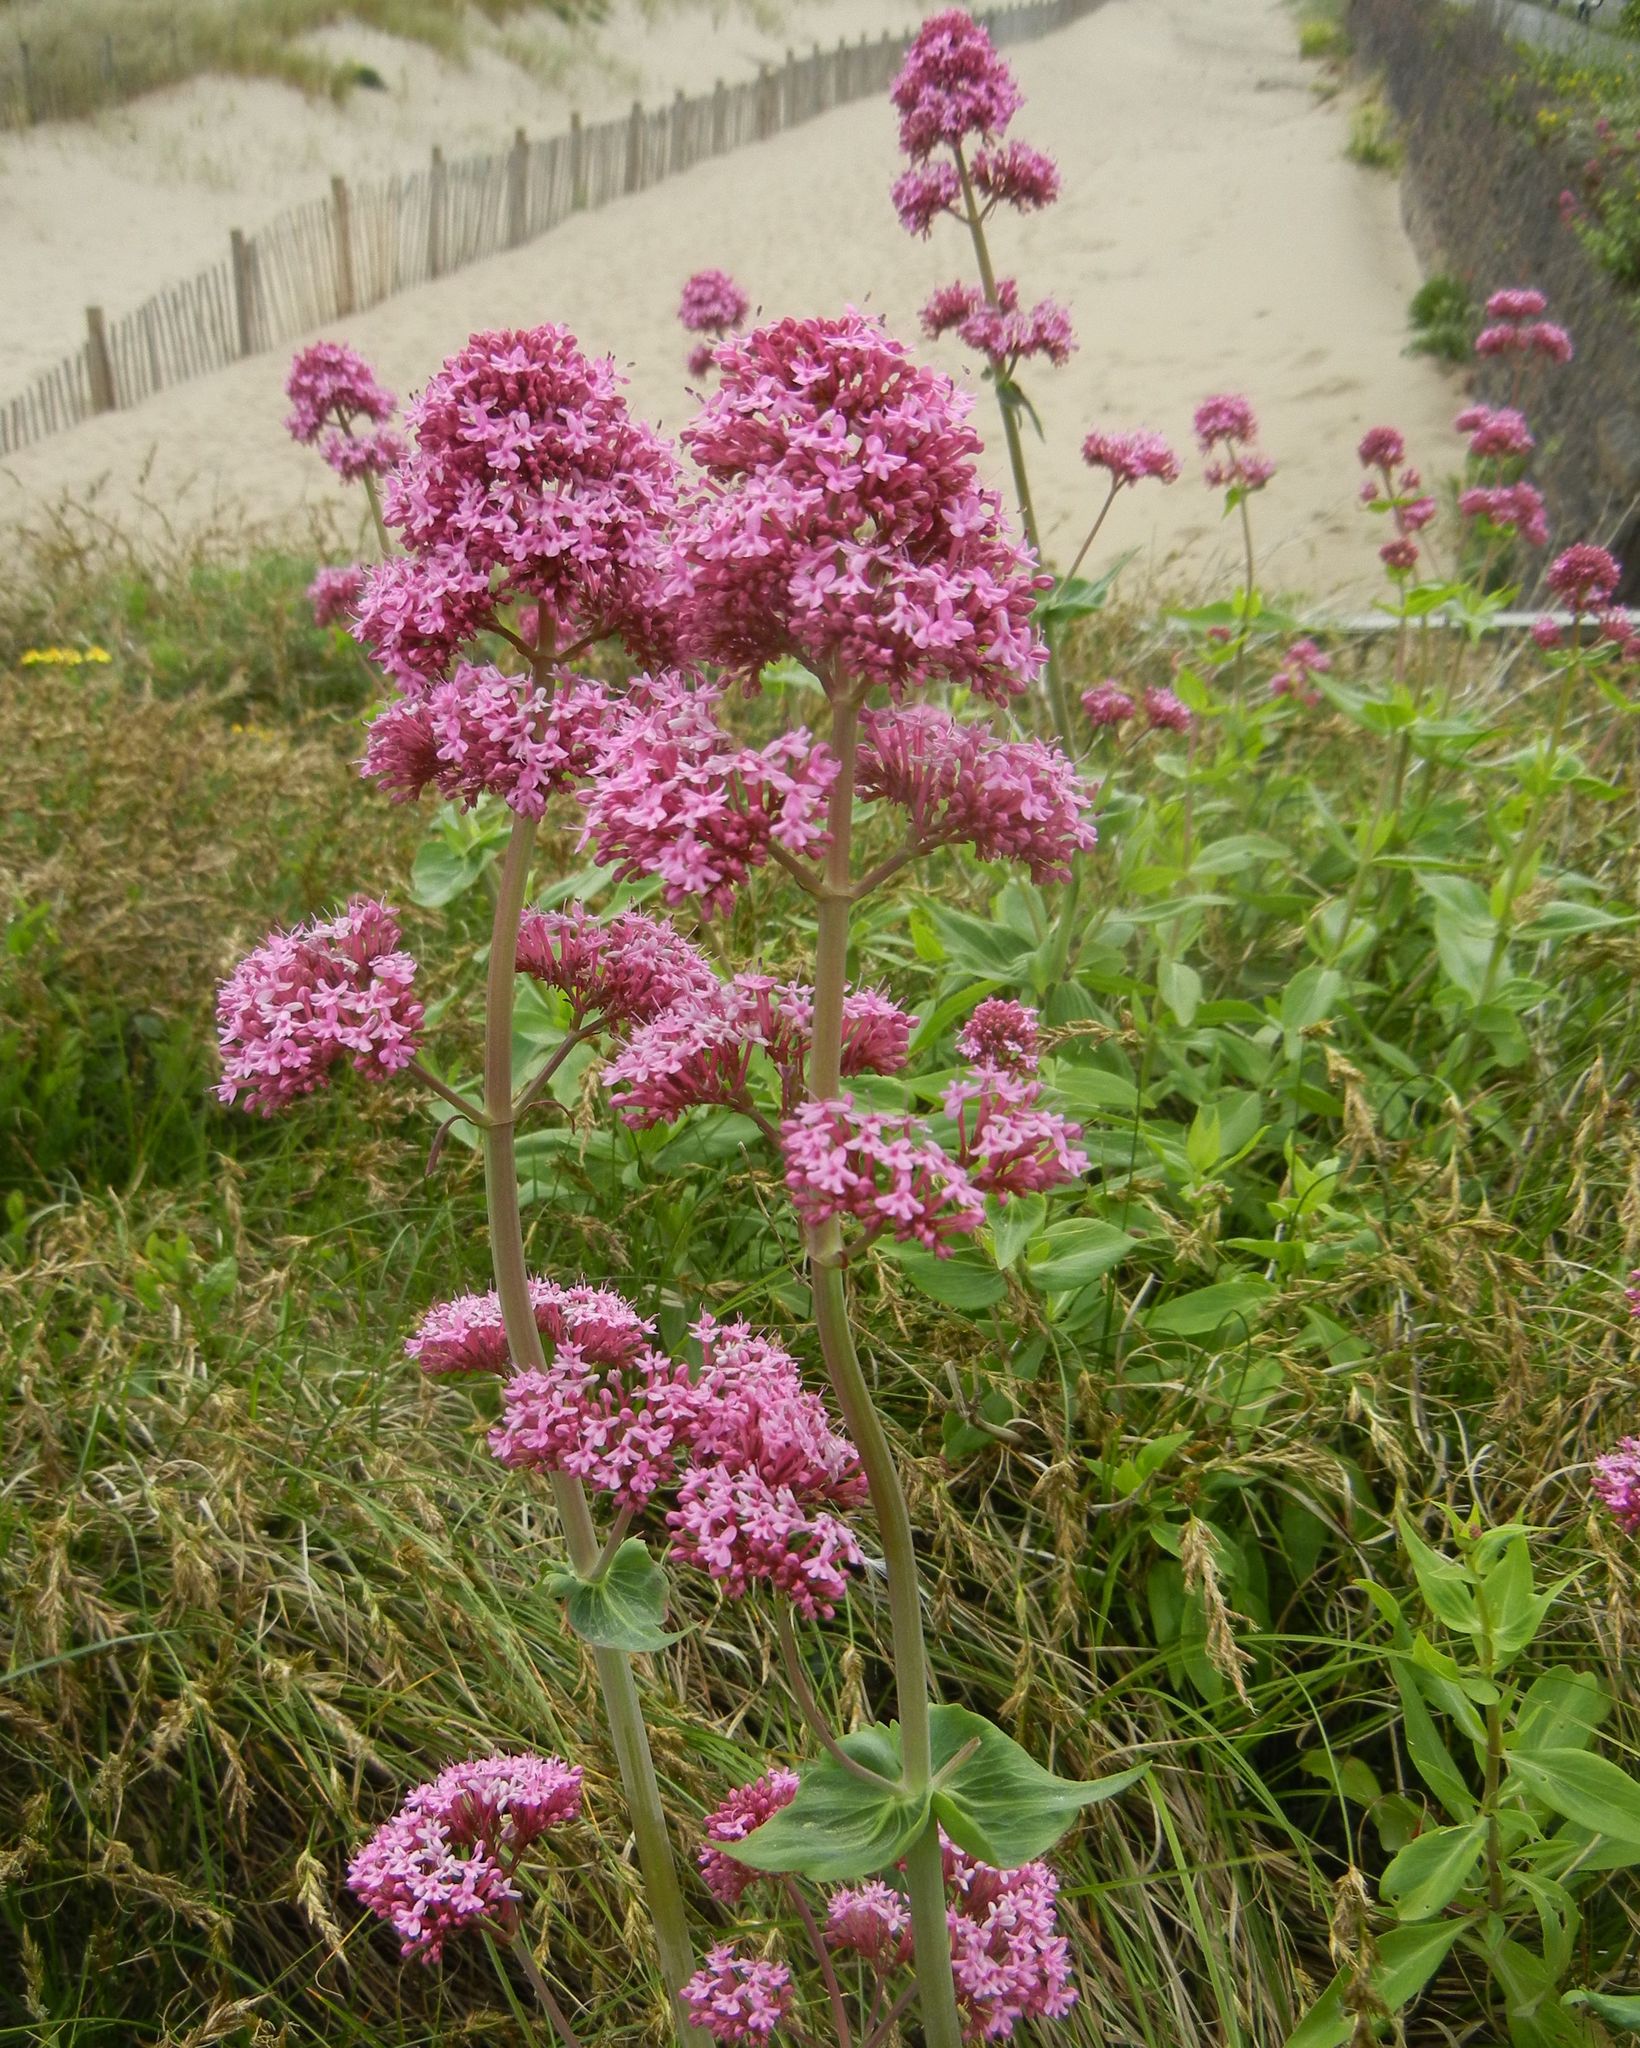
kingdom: Plantae
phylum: Tracheophyta
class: Magnoliopsida
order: Dipsacales
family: Caprifoliaceae
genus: Centranthus
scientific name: Centranthus ruber
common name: Red valerian
